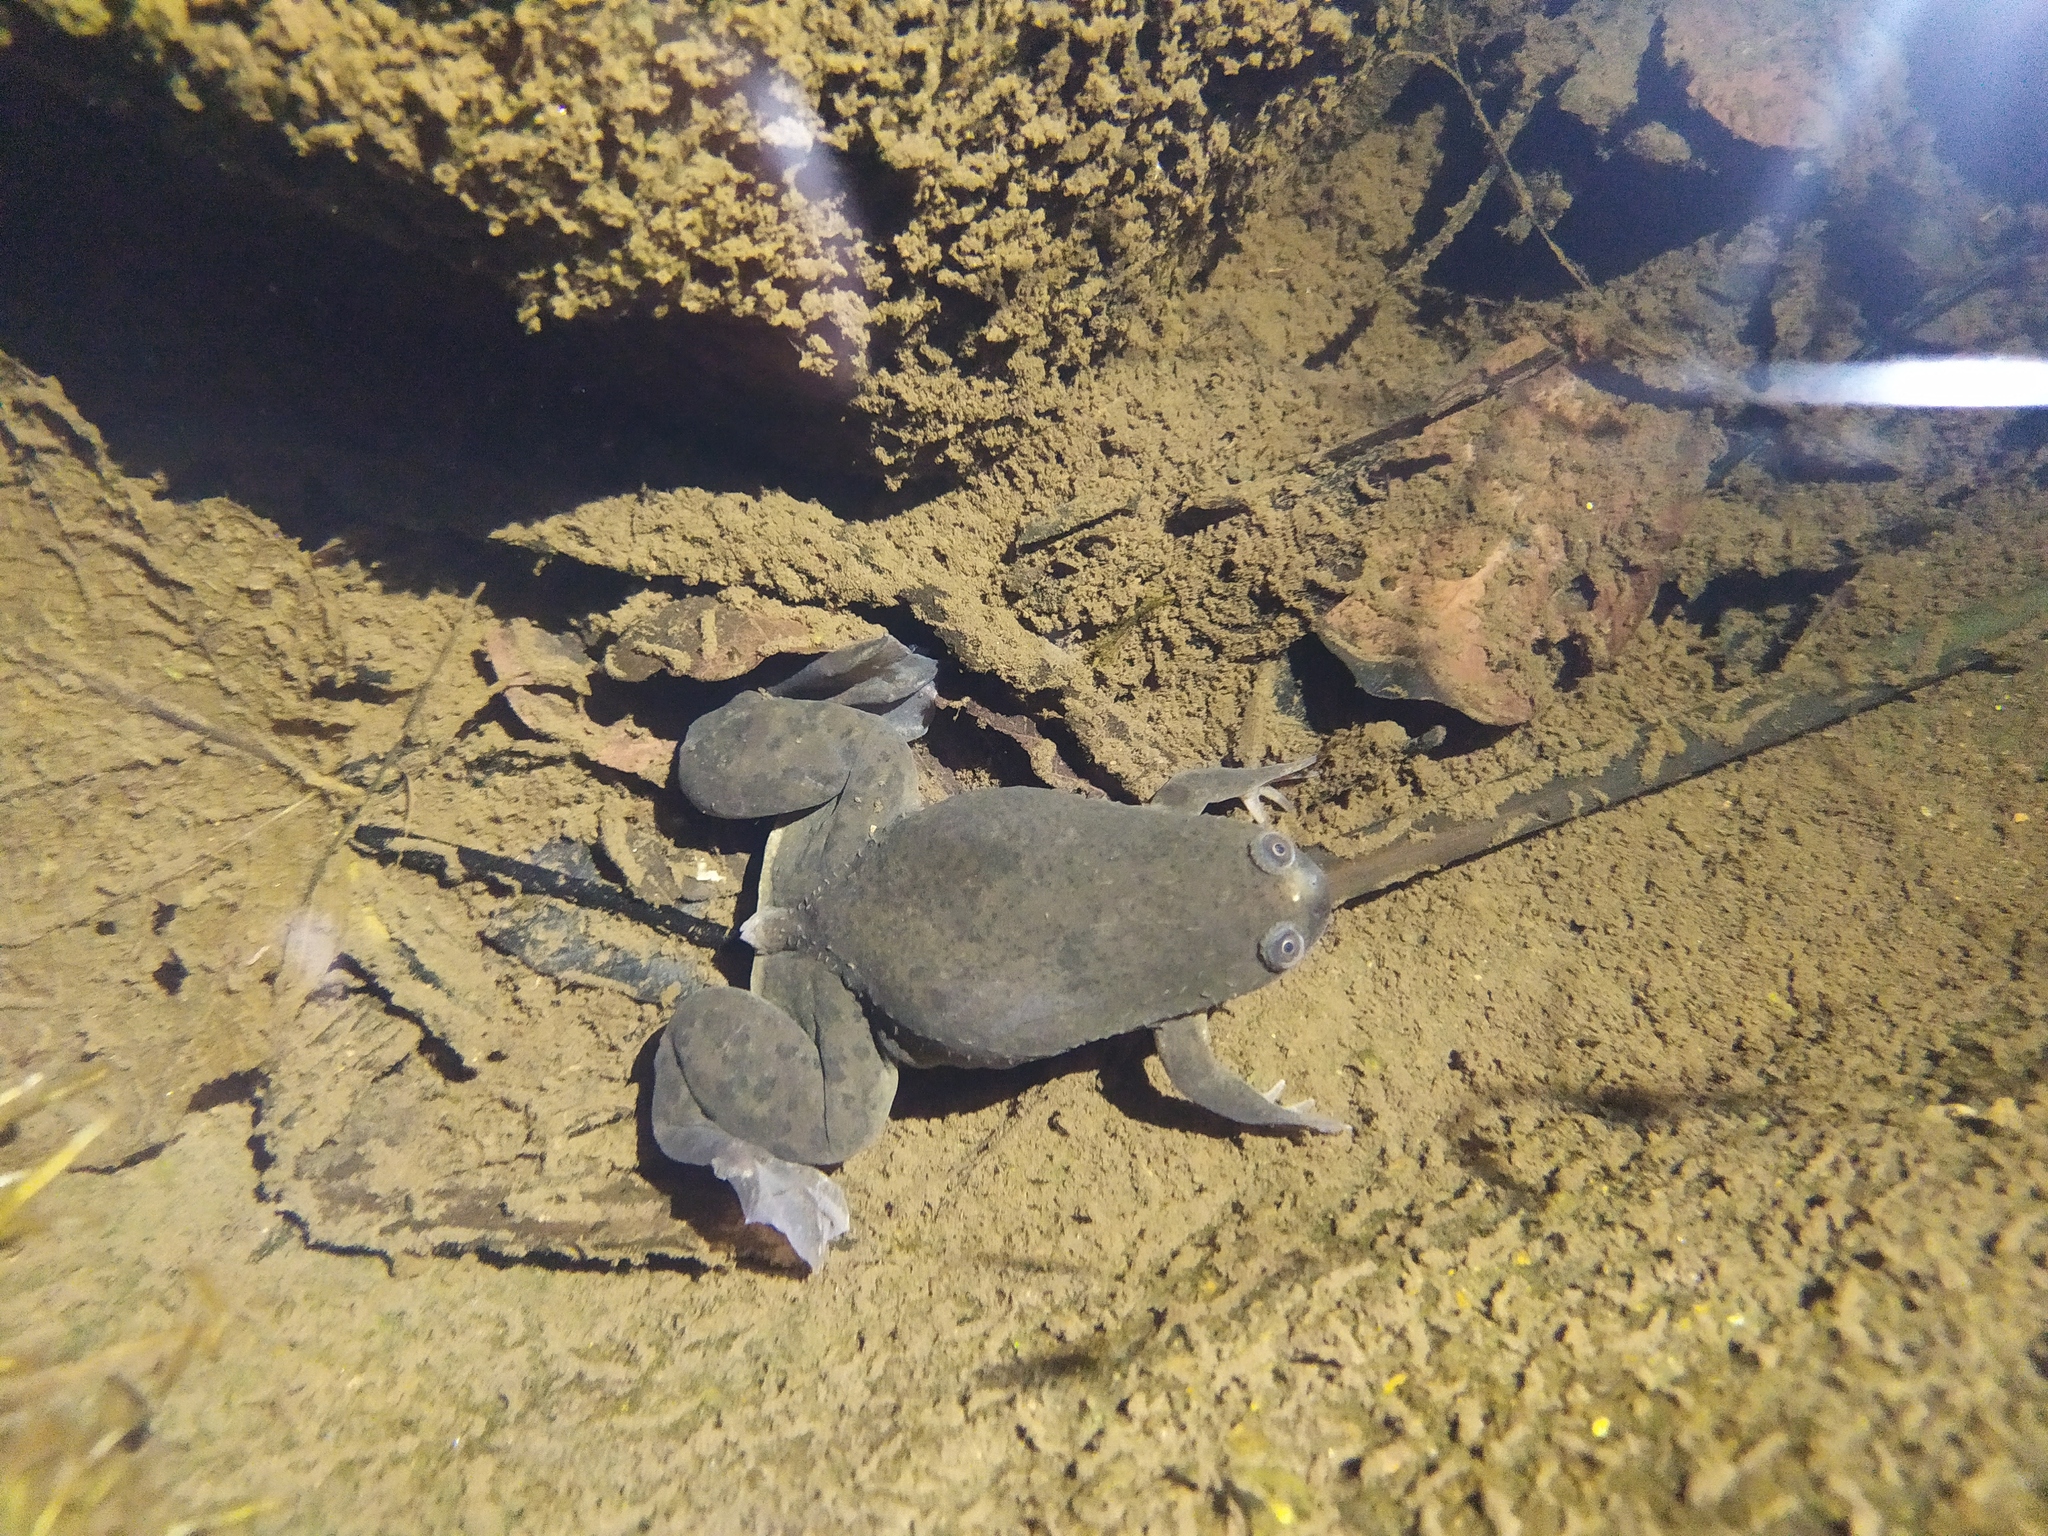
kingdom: Animalia
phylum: Chordata
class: Amphibia
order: Anura
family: Pipidae
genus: Xenopus
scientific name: Xenopus laevis
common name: African clawed frog
